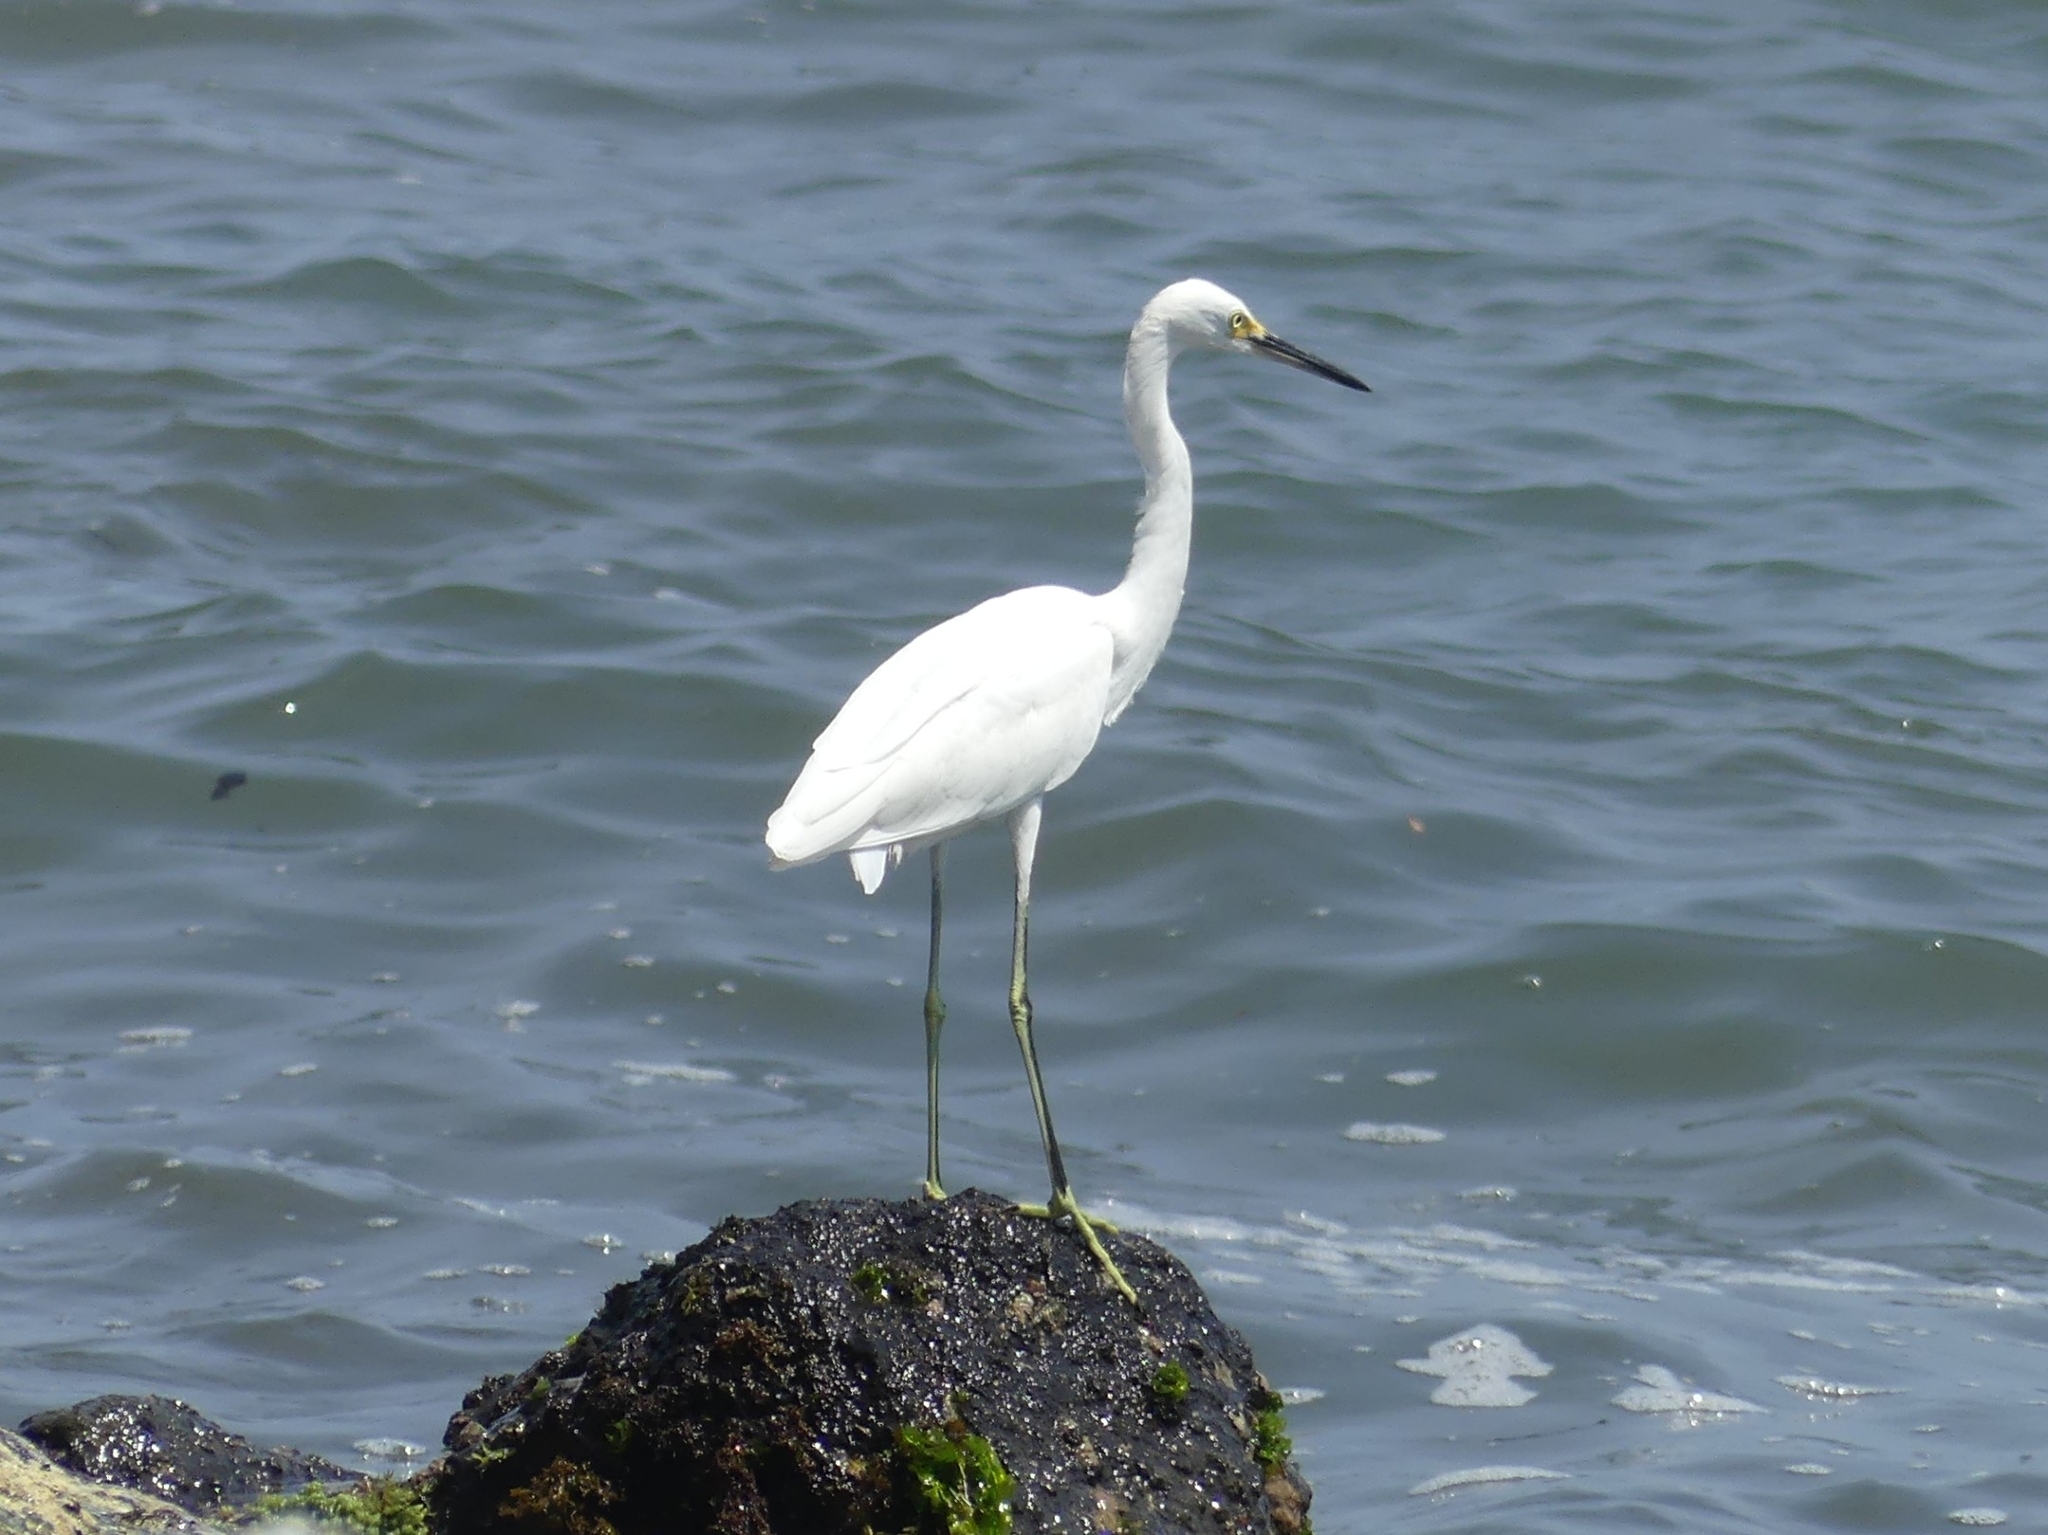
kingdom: Animalia
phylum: Chordata
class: Aves
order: Pelecaniformes
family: Ardeidae
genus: Egretta
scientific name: Egretta thula
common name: Snowy egret
